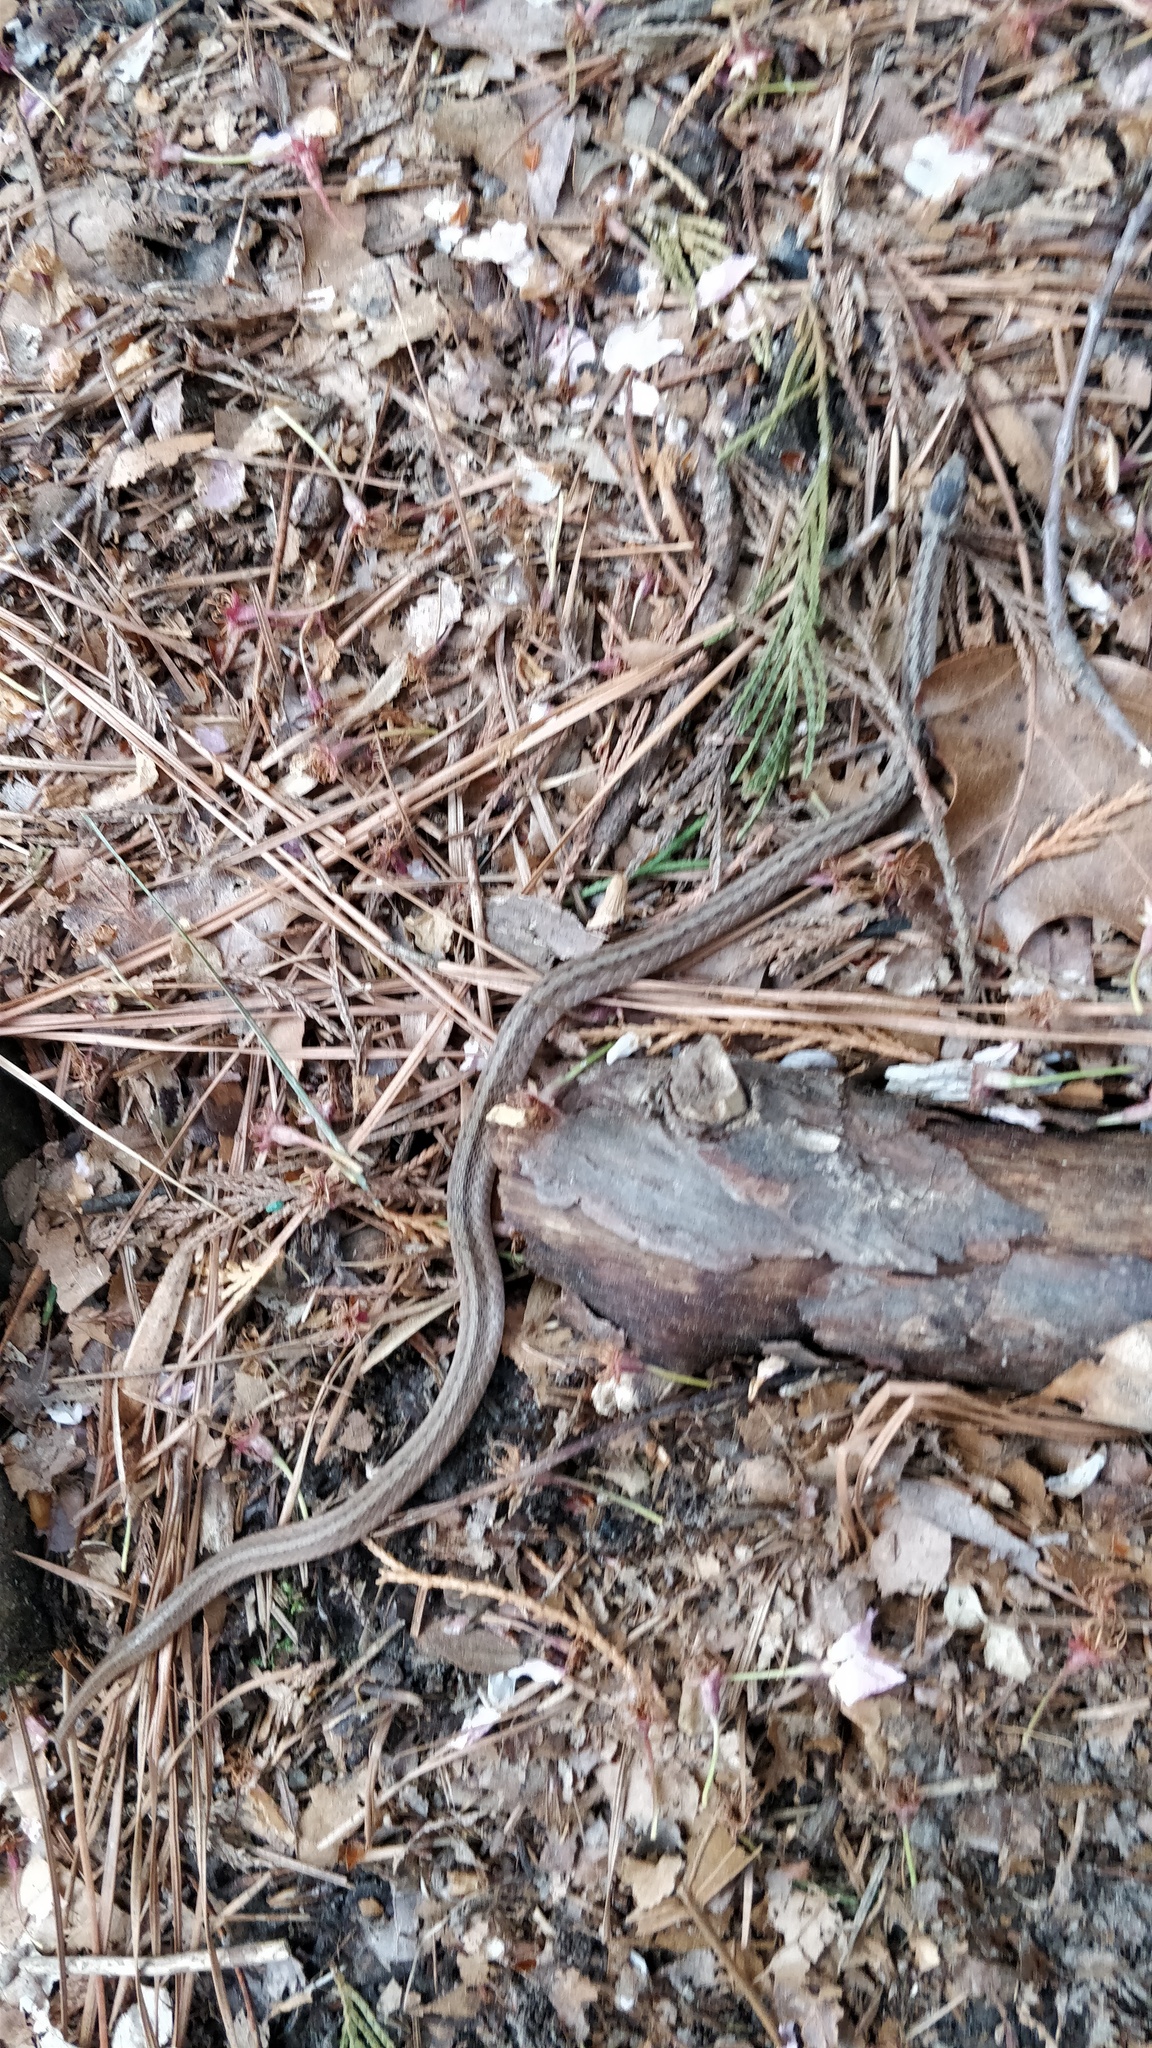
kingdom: Animalia
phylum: Chordata
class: Squamata
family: Colubridae
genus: Storeria
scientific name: Storeria dekayi
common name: (dekay’s) brown snake
